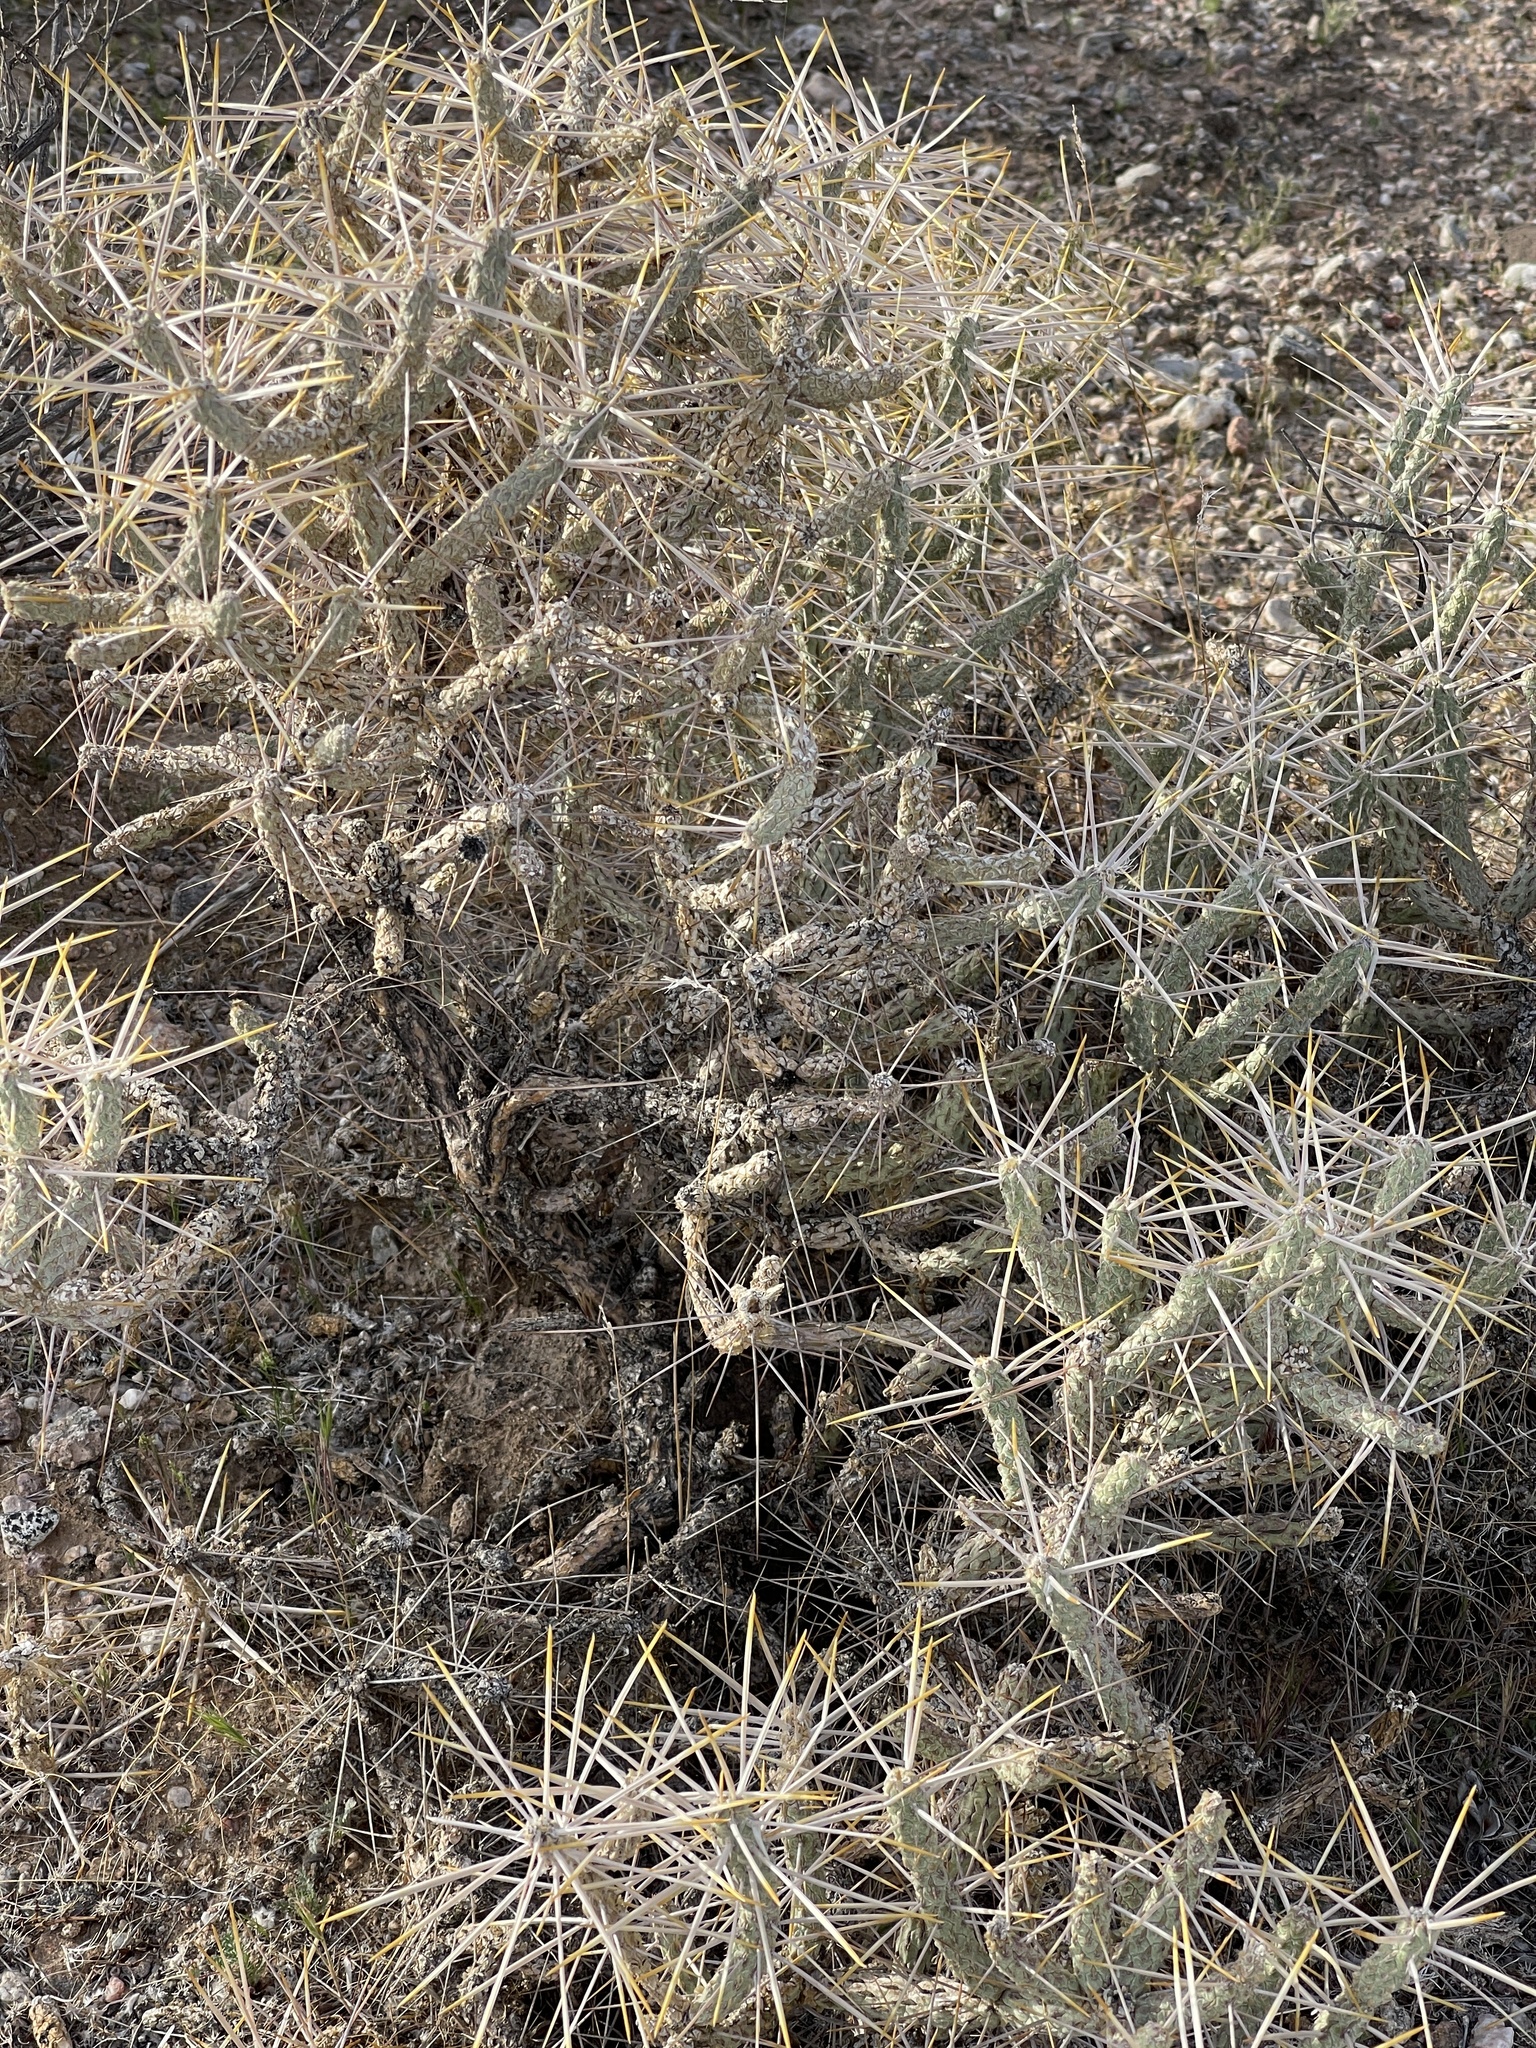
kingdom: Plantae
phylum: Tracheophyta
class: Magnoliopsida
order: Caryophyllales
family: Cactaceae
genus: Cylindropuntia
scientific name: Cylindropuntia ramosissima
